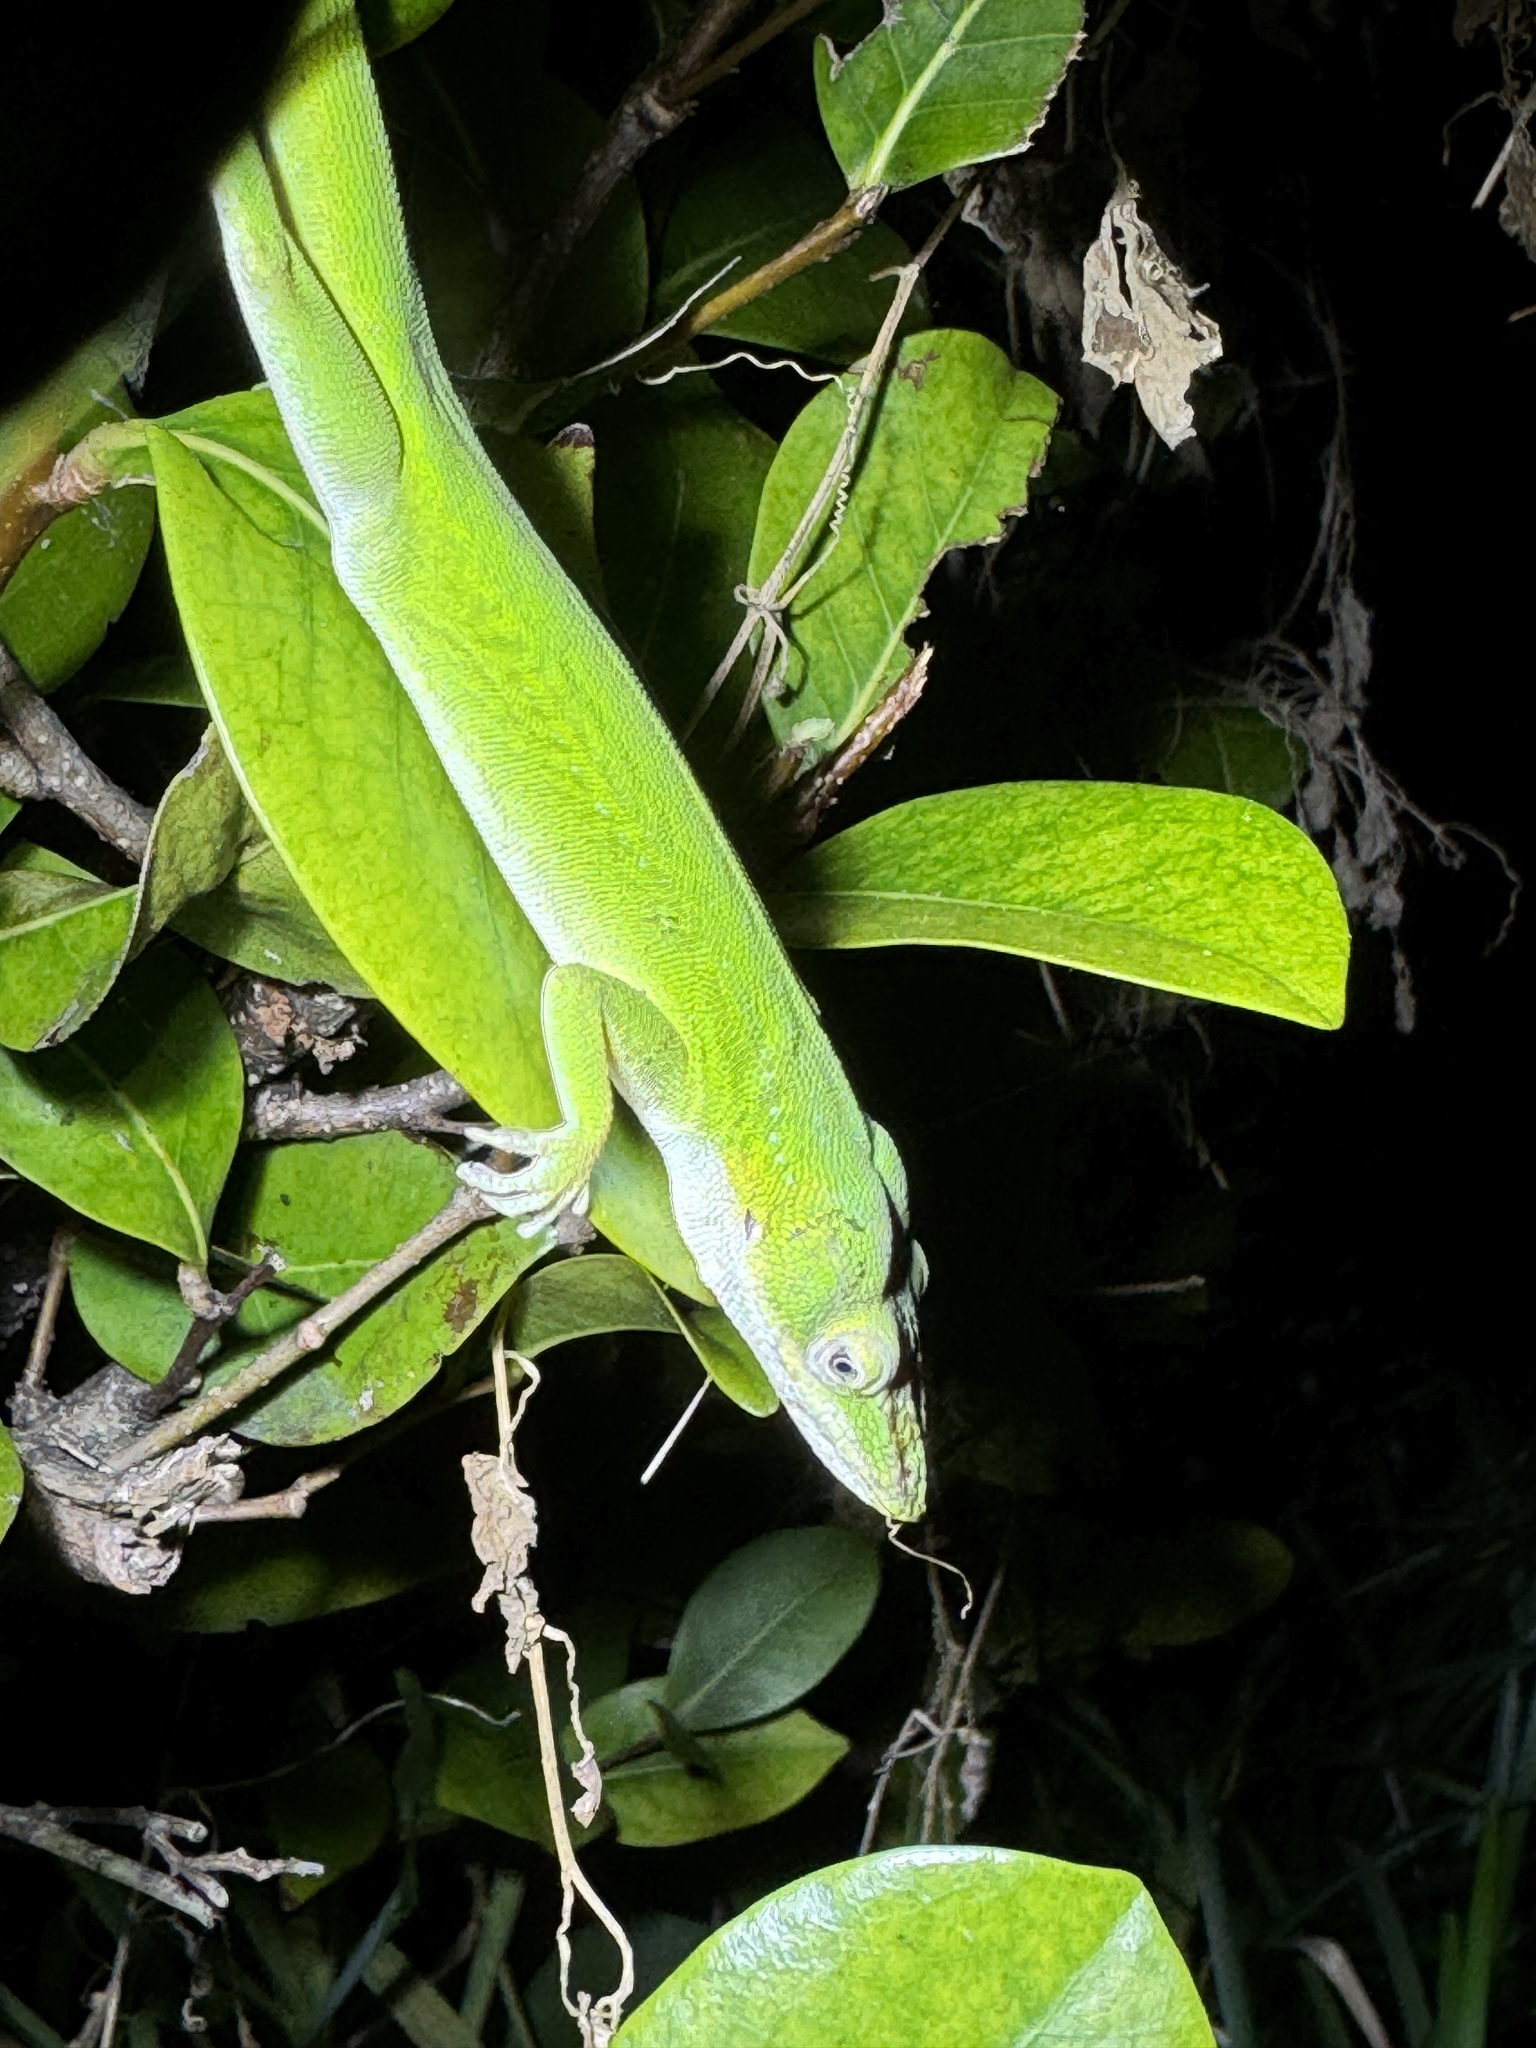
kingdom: Animalia
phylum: Chordata
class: Squamata
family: Dactyloidae
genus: Anolis
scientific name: Anolis carolinensis
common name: Green anole
